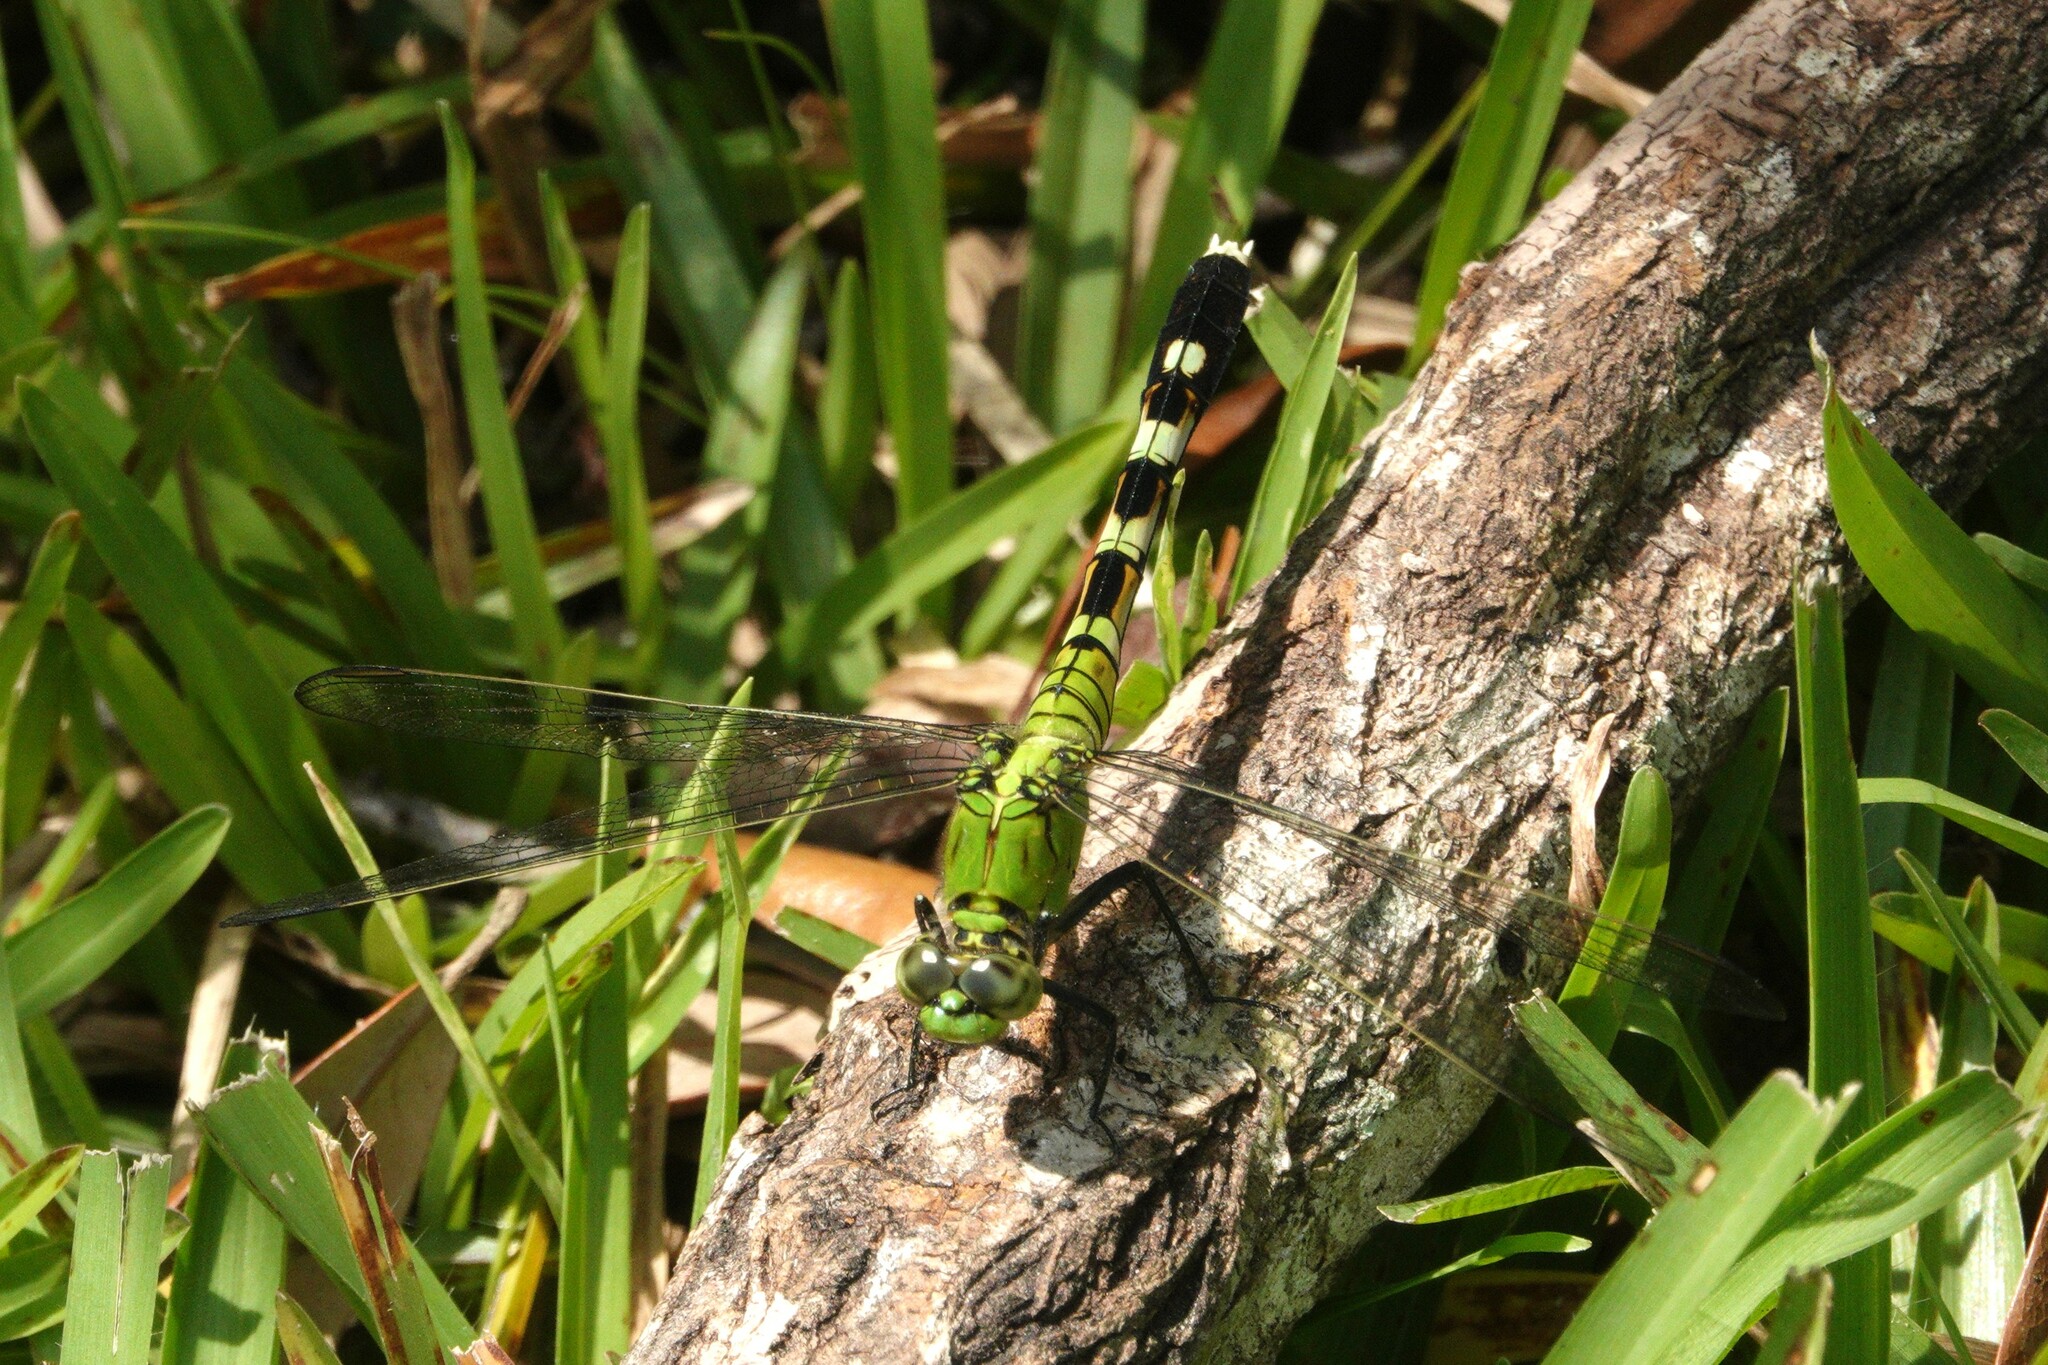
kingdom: Animalia
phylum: Arthropoda
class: Insecta
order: Odonata
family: Libellulidae
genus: Erythemis
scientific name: Erythemis simplicicollis
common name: Eastern pondhawk
